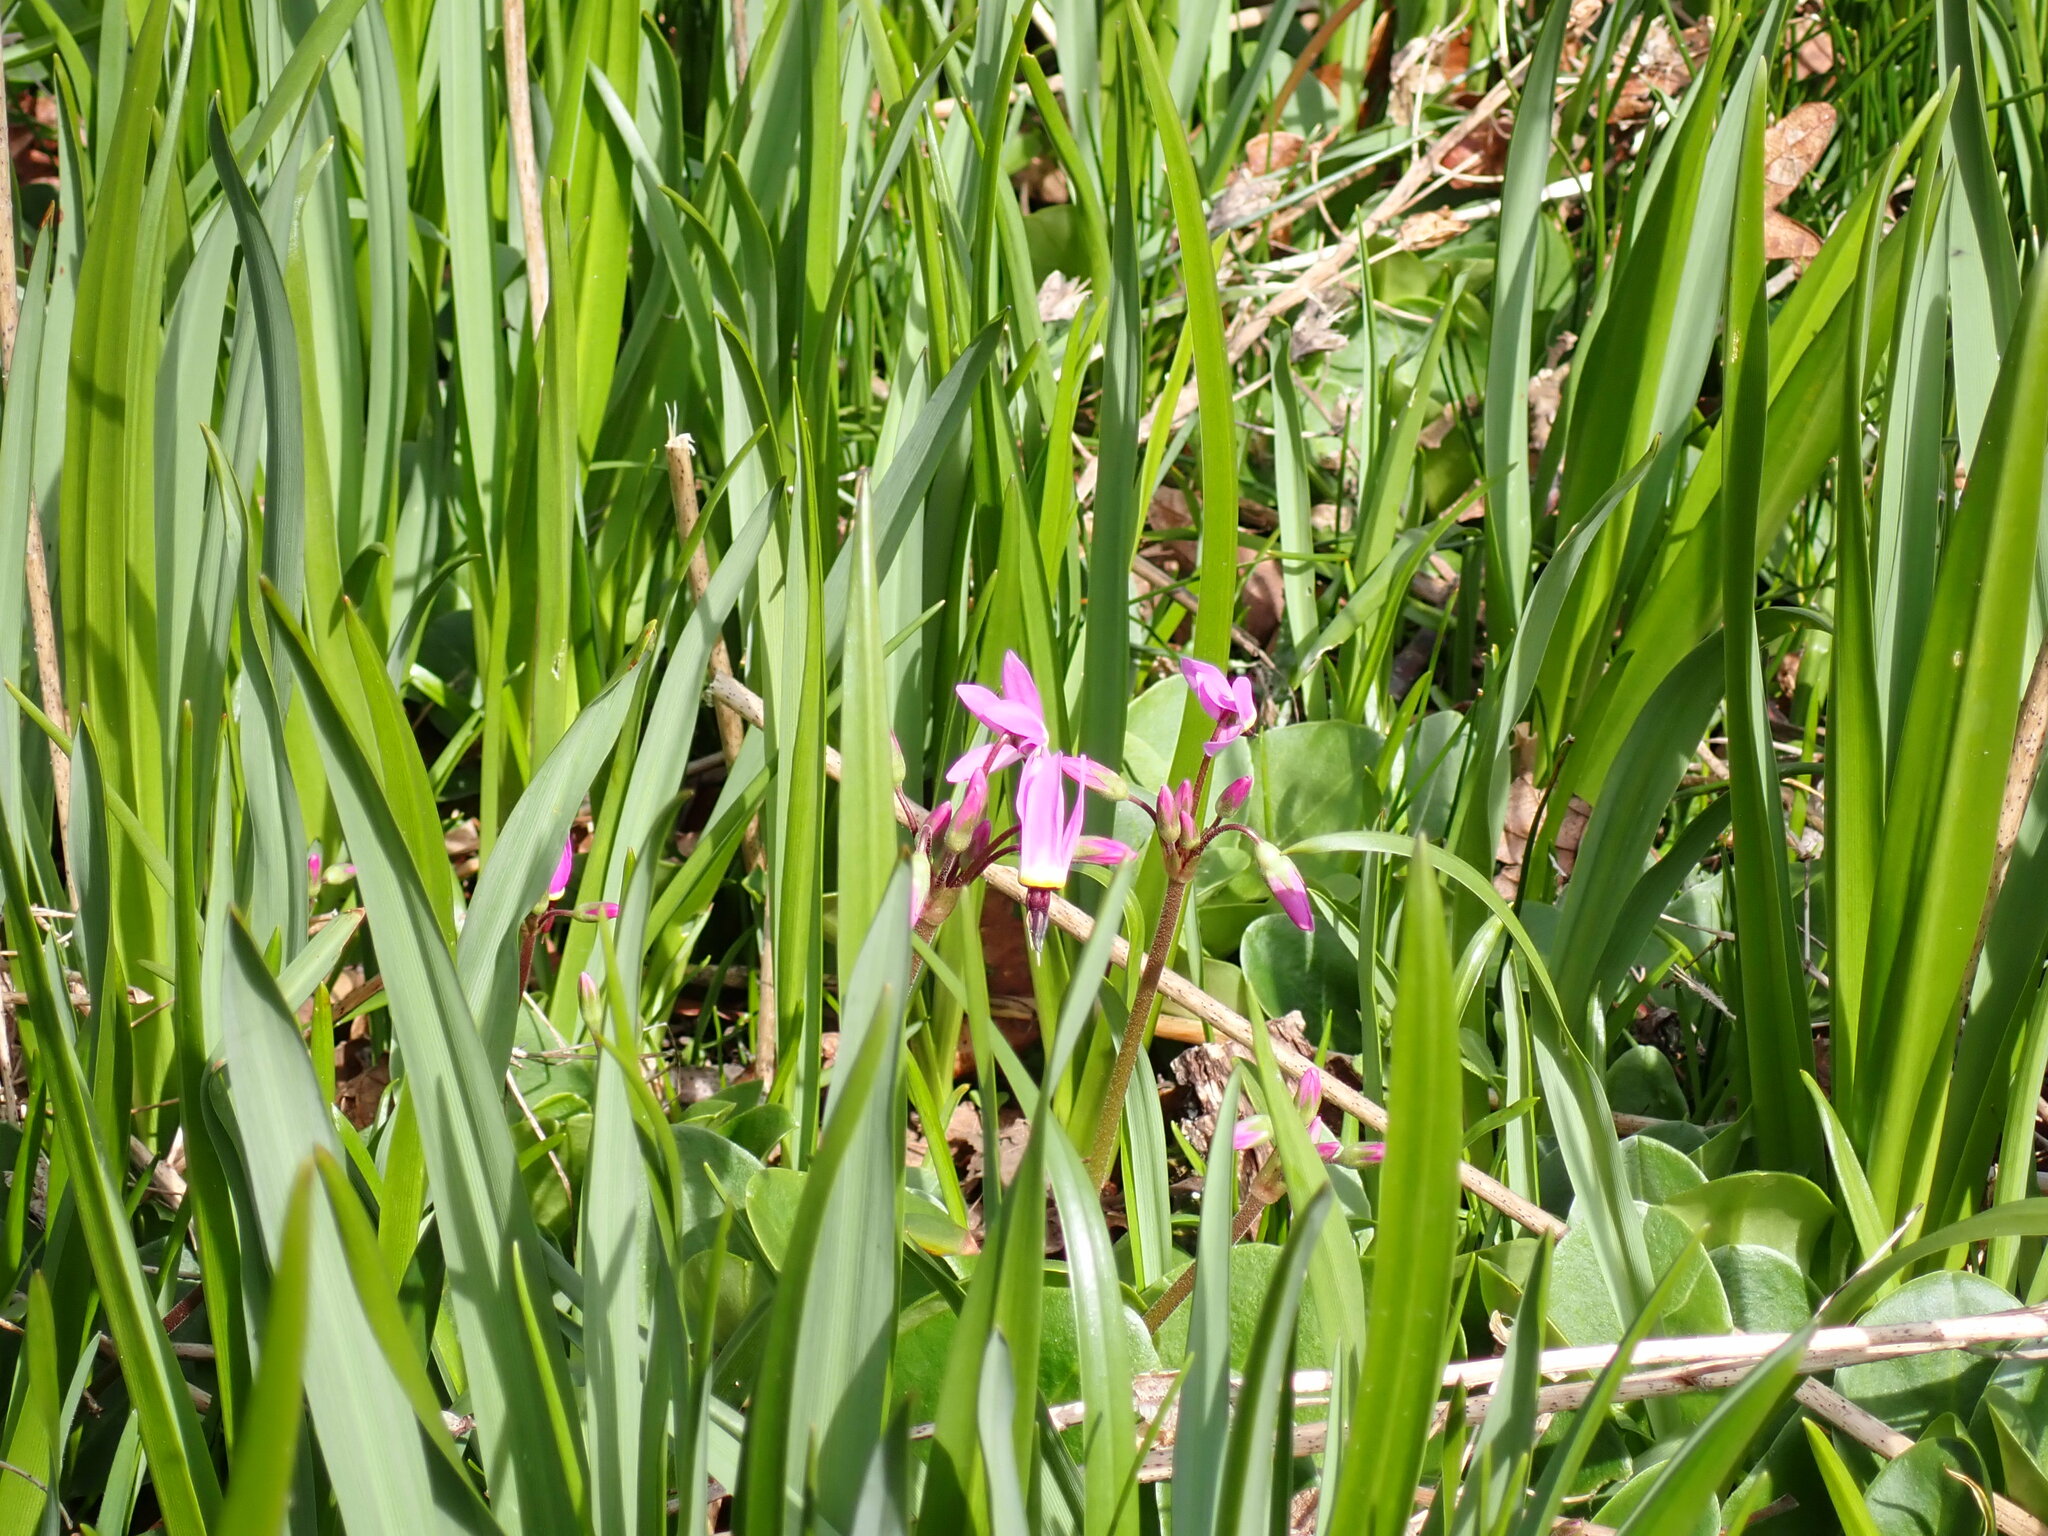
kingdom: Plantae
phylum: Tracheophyta
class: Magnoliopsida
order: Ericales
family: Primulaceae
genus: Dodecatheon
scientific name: Dodecatheon hendersonii
